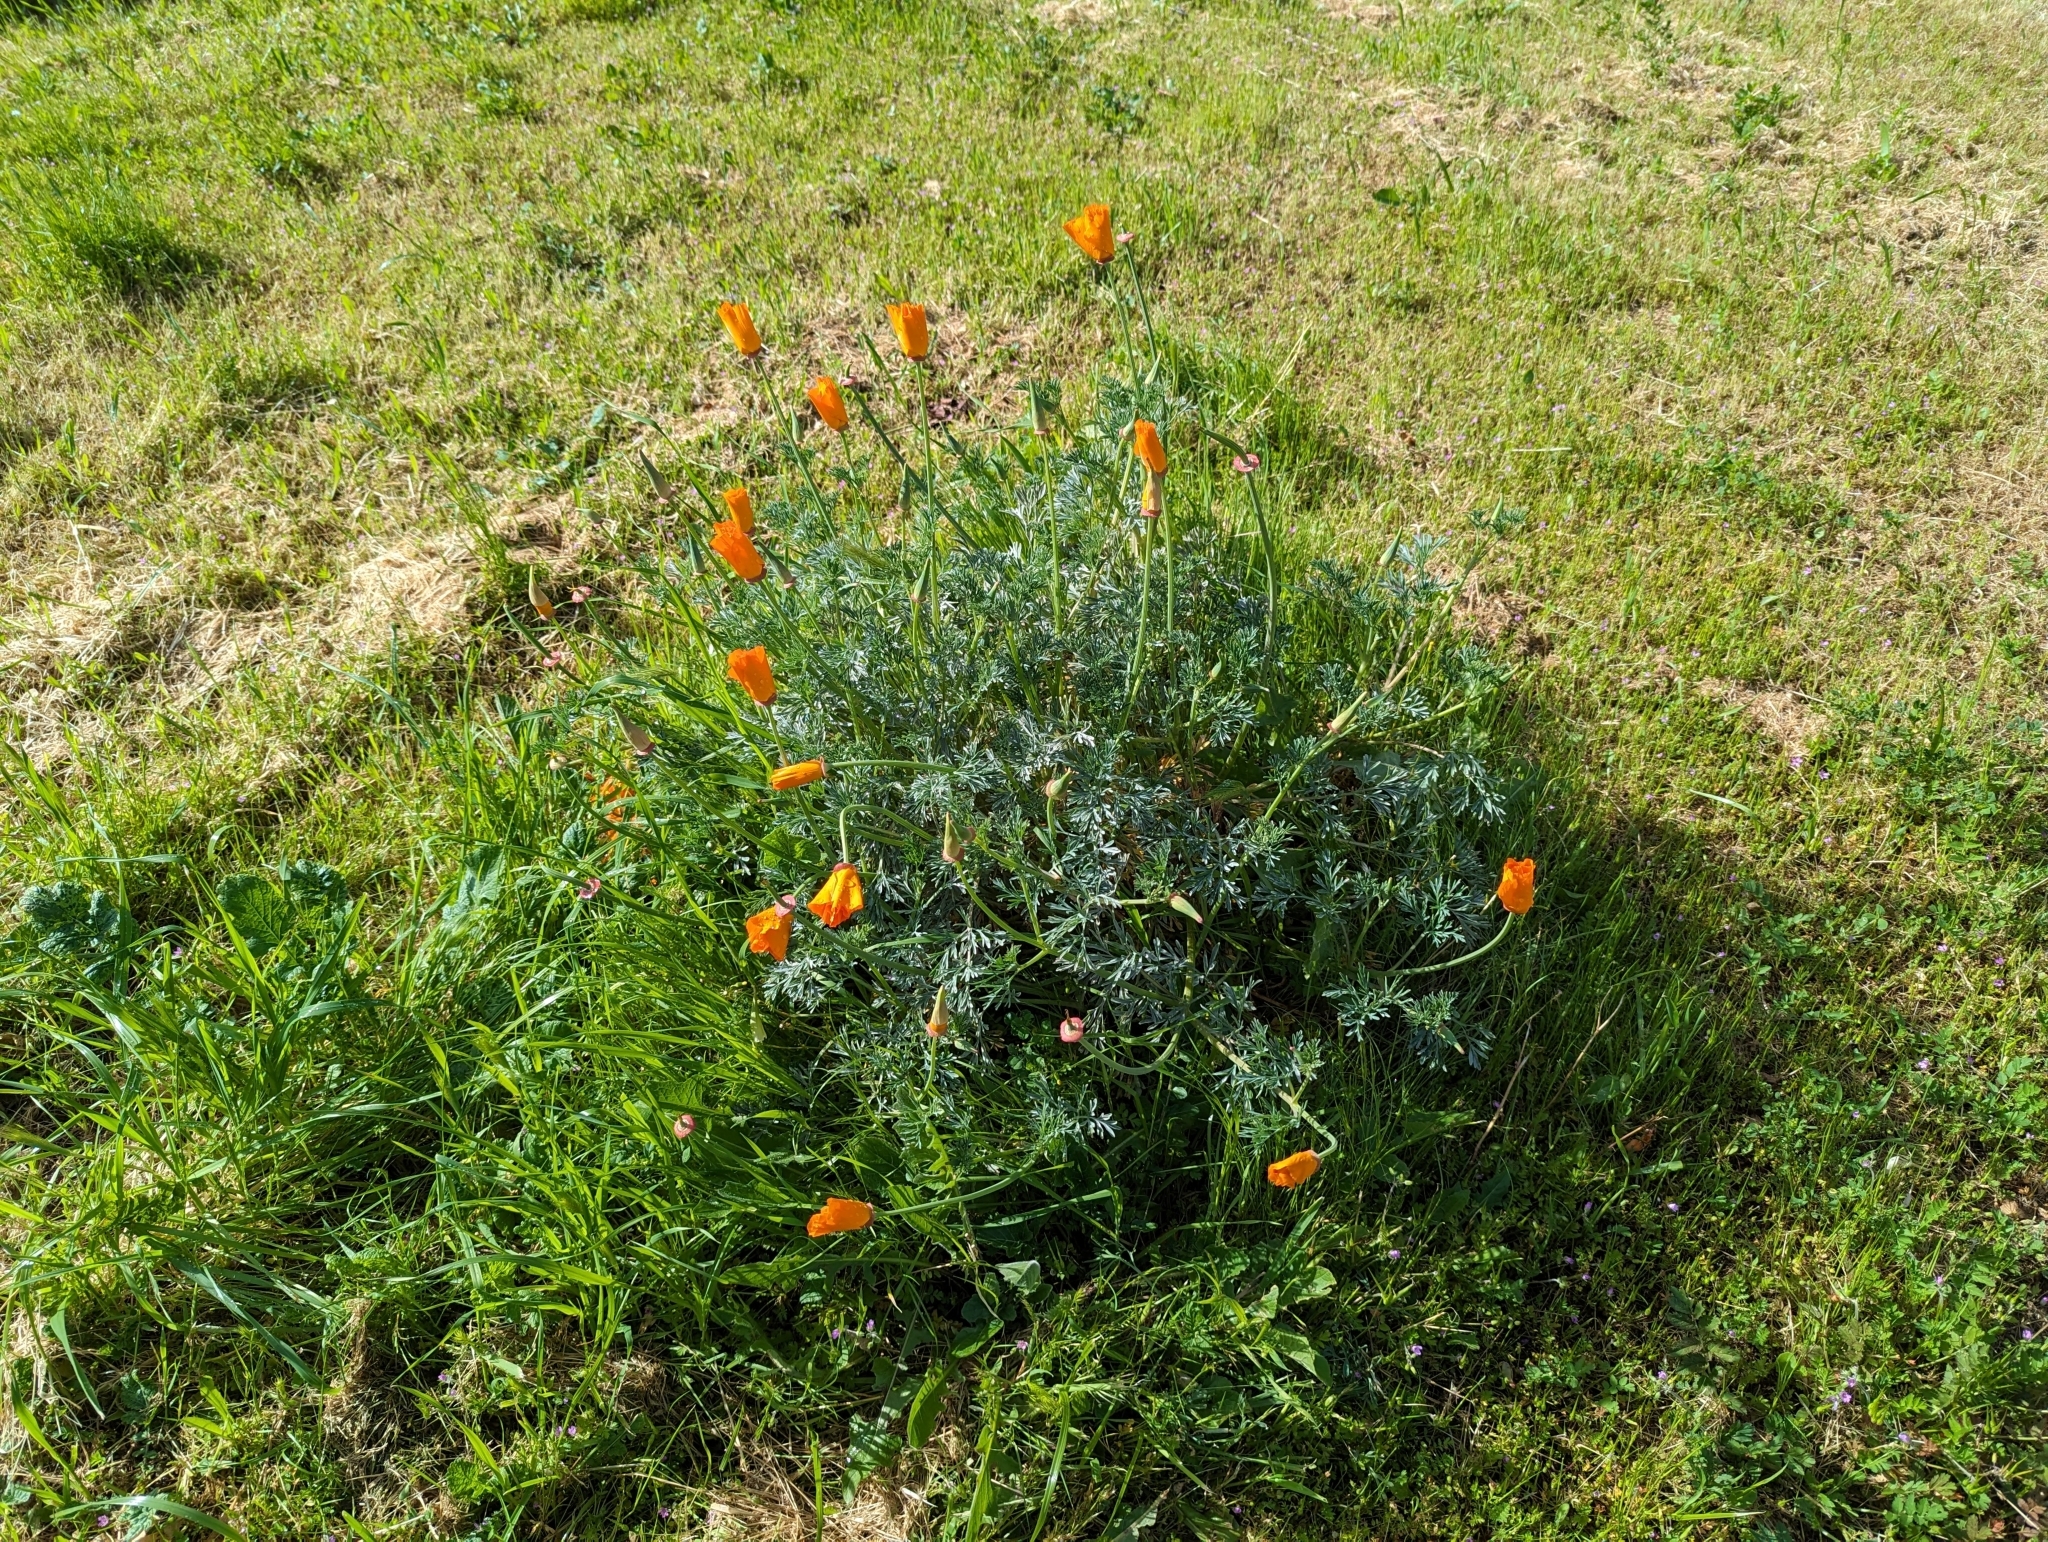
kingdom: Plantae
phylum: Tracheophyta
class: Magnoliopsida
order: Ranunculales
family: Papaveraceae
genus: Eschscholzia
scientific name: Eschscholzia californica
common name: California poppy
